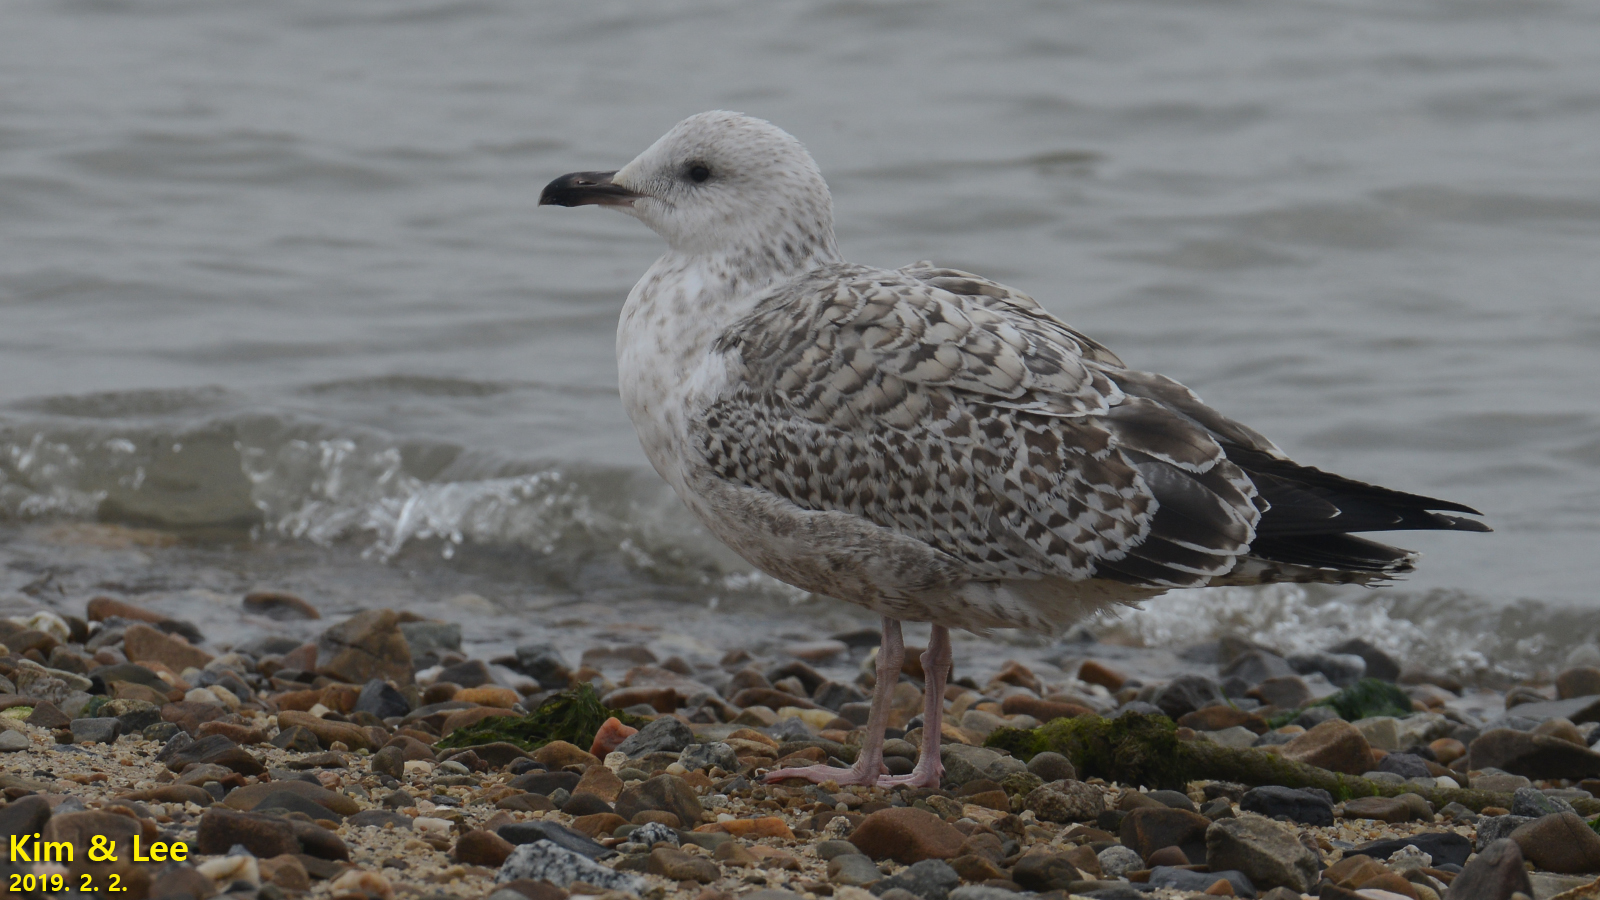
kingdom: Animalia
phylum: Chordata
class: Aves
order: Charadriiformes
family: Laridae
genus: Larus
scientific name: Larus fuscus
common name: Lesser black-backed gull
